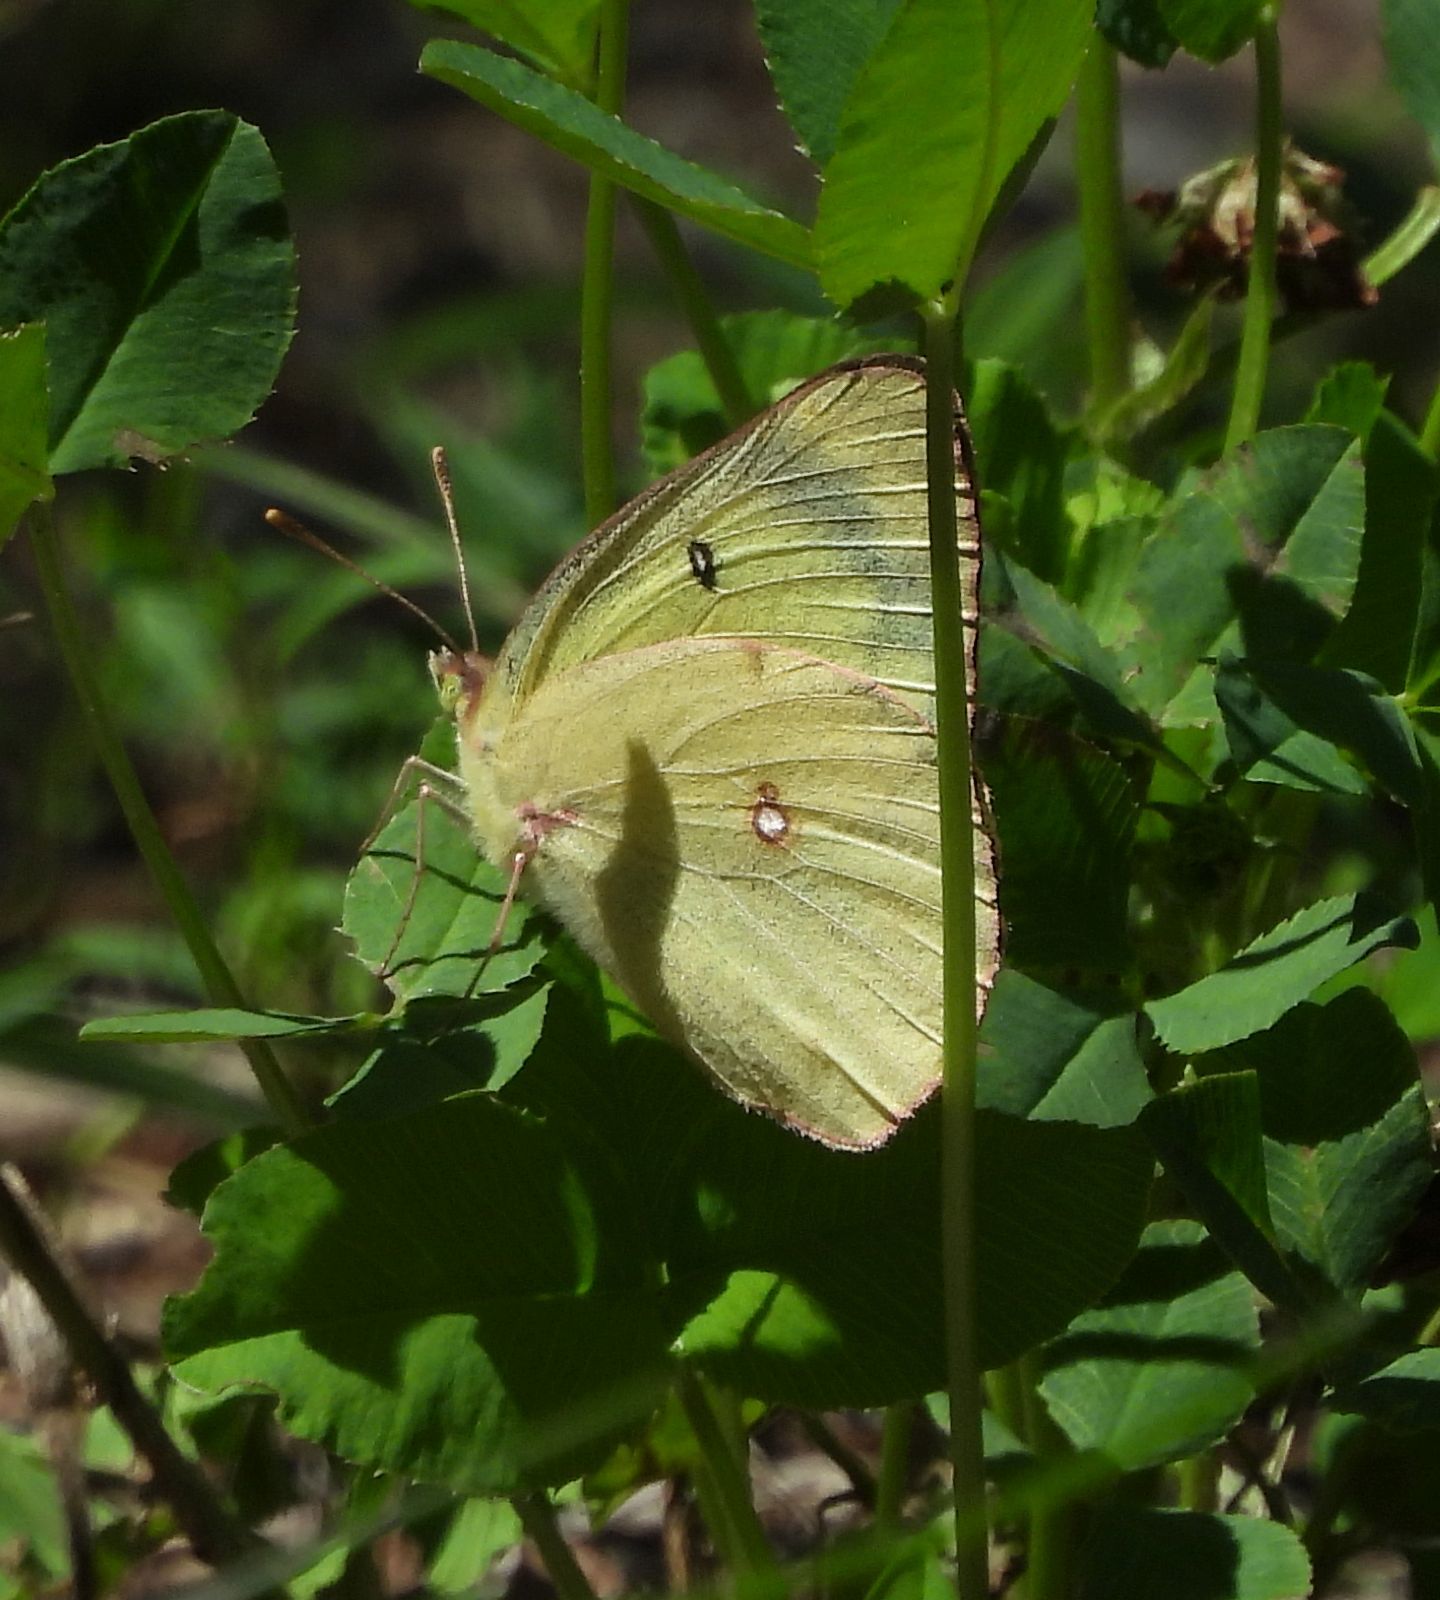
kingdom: Animalia
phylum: Arthropoda
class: Insecta
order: Lepidoptera
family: Pieridae
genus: Colias
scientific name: Colias philodice
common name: Clouded sulphur
